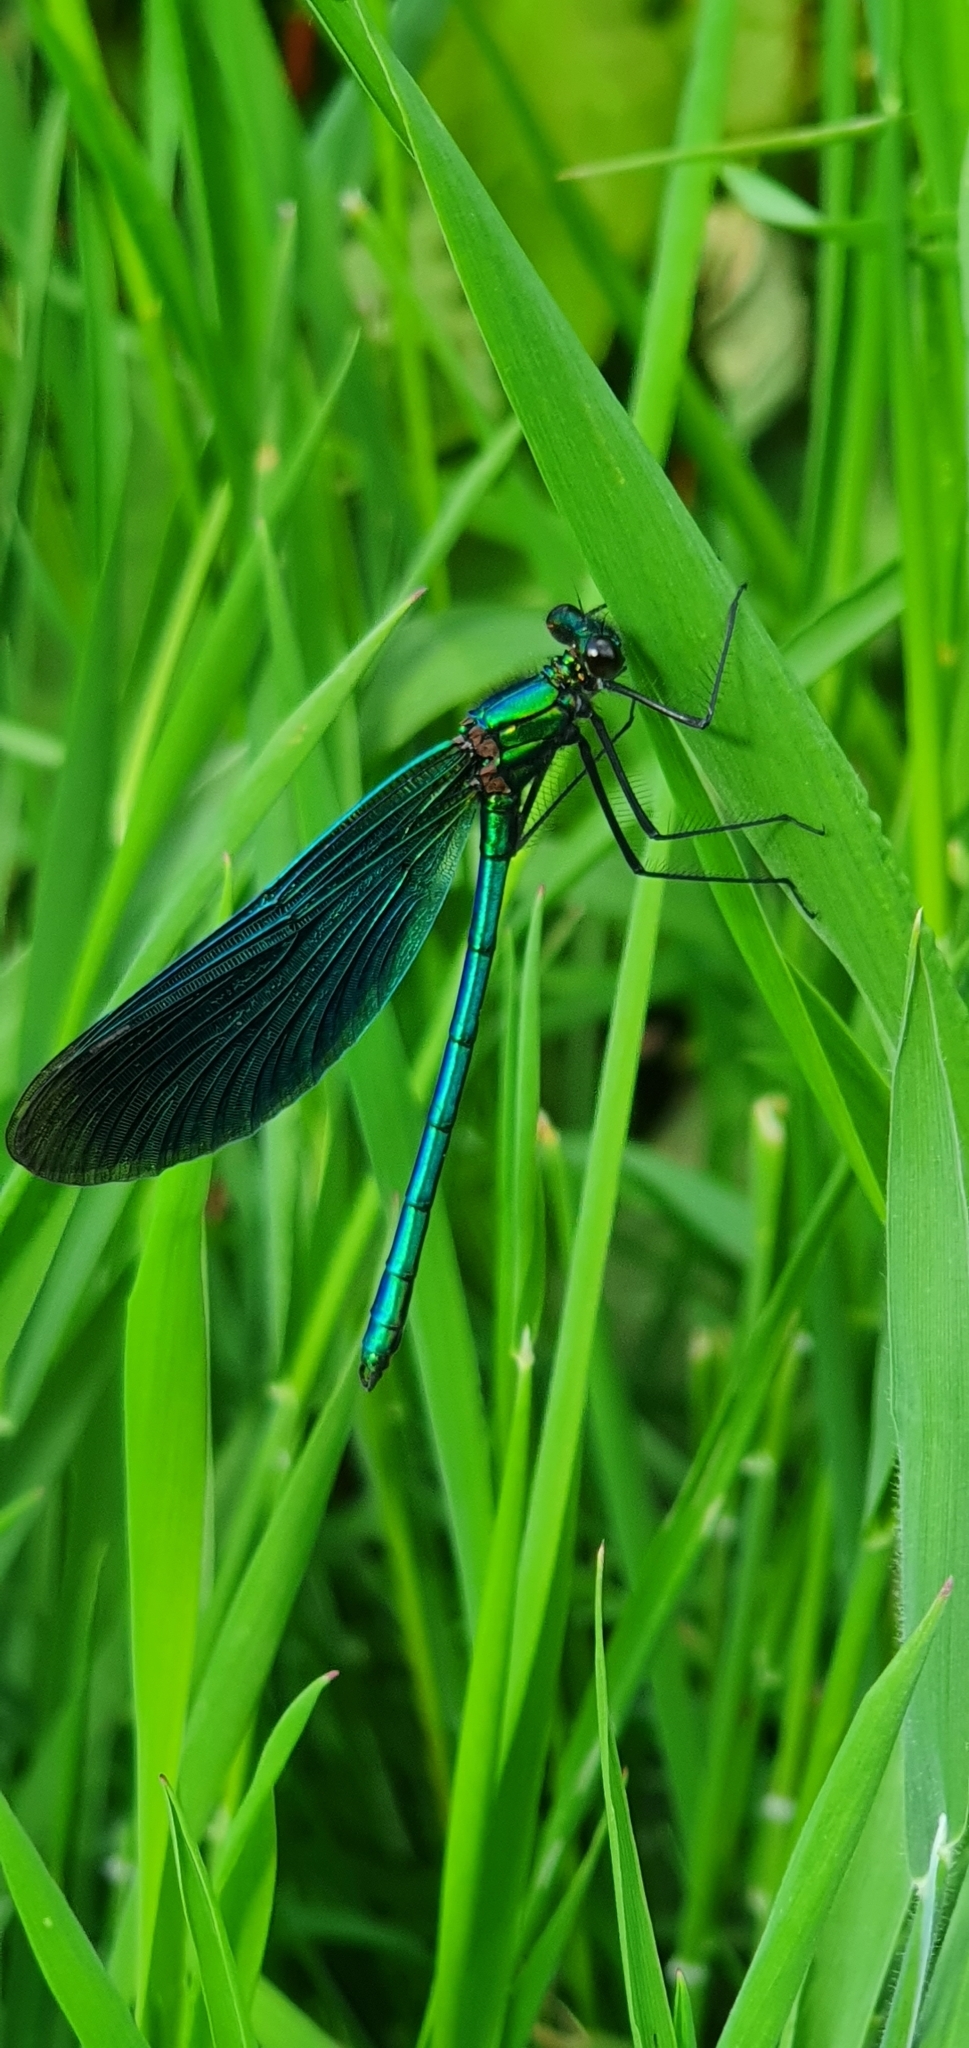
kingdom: Animalia
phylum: Arthropoda
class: Insecta
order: Odonata
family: Calopterygidae
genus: Calopteryx
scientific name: Calopteryx virgo
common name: Beautiful demoiselle
